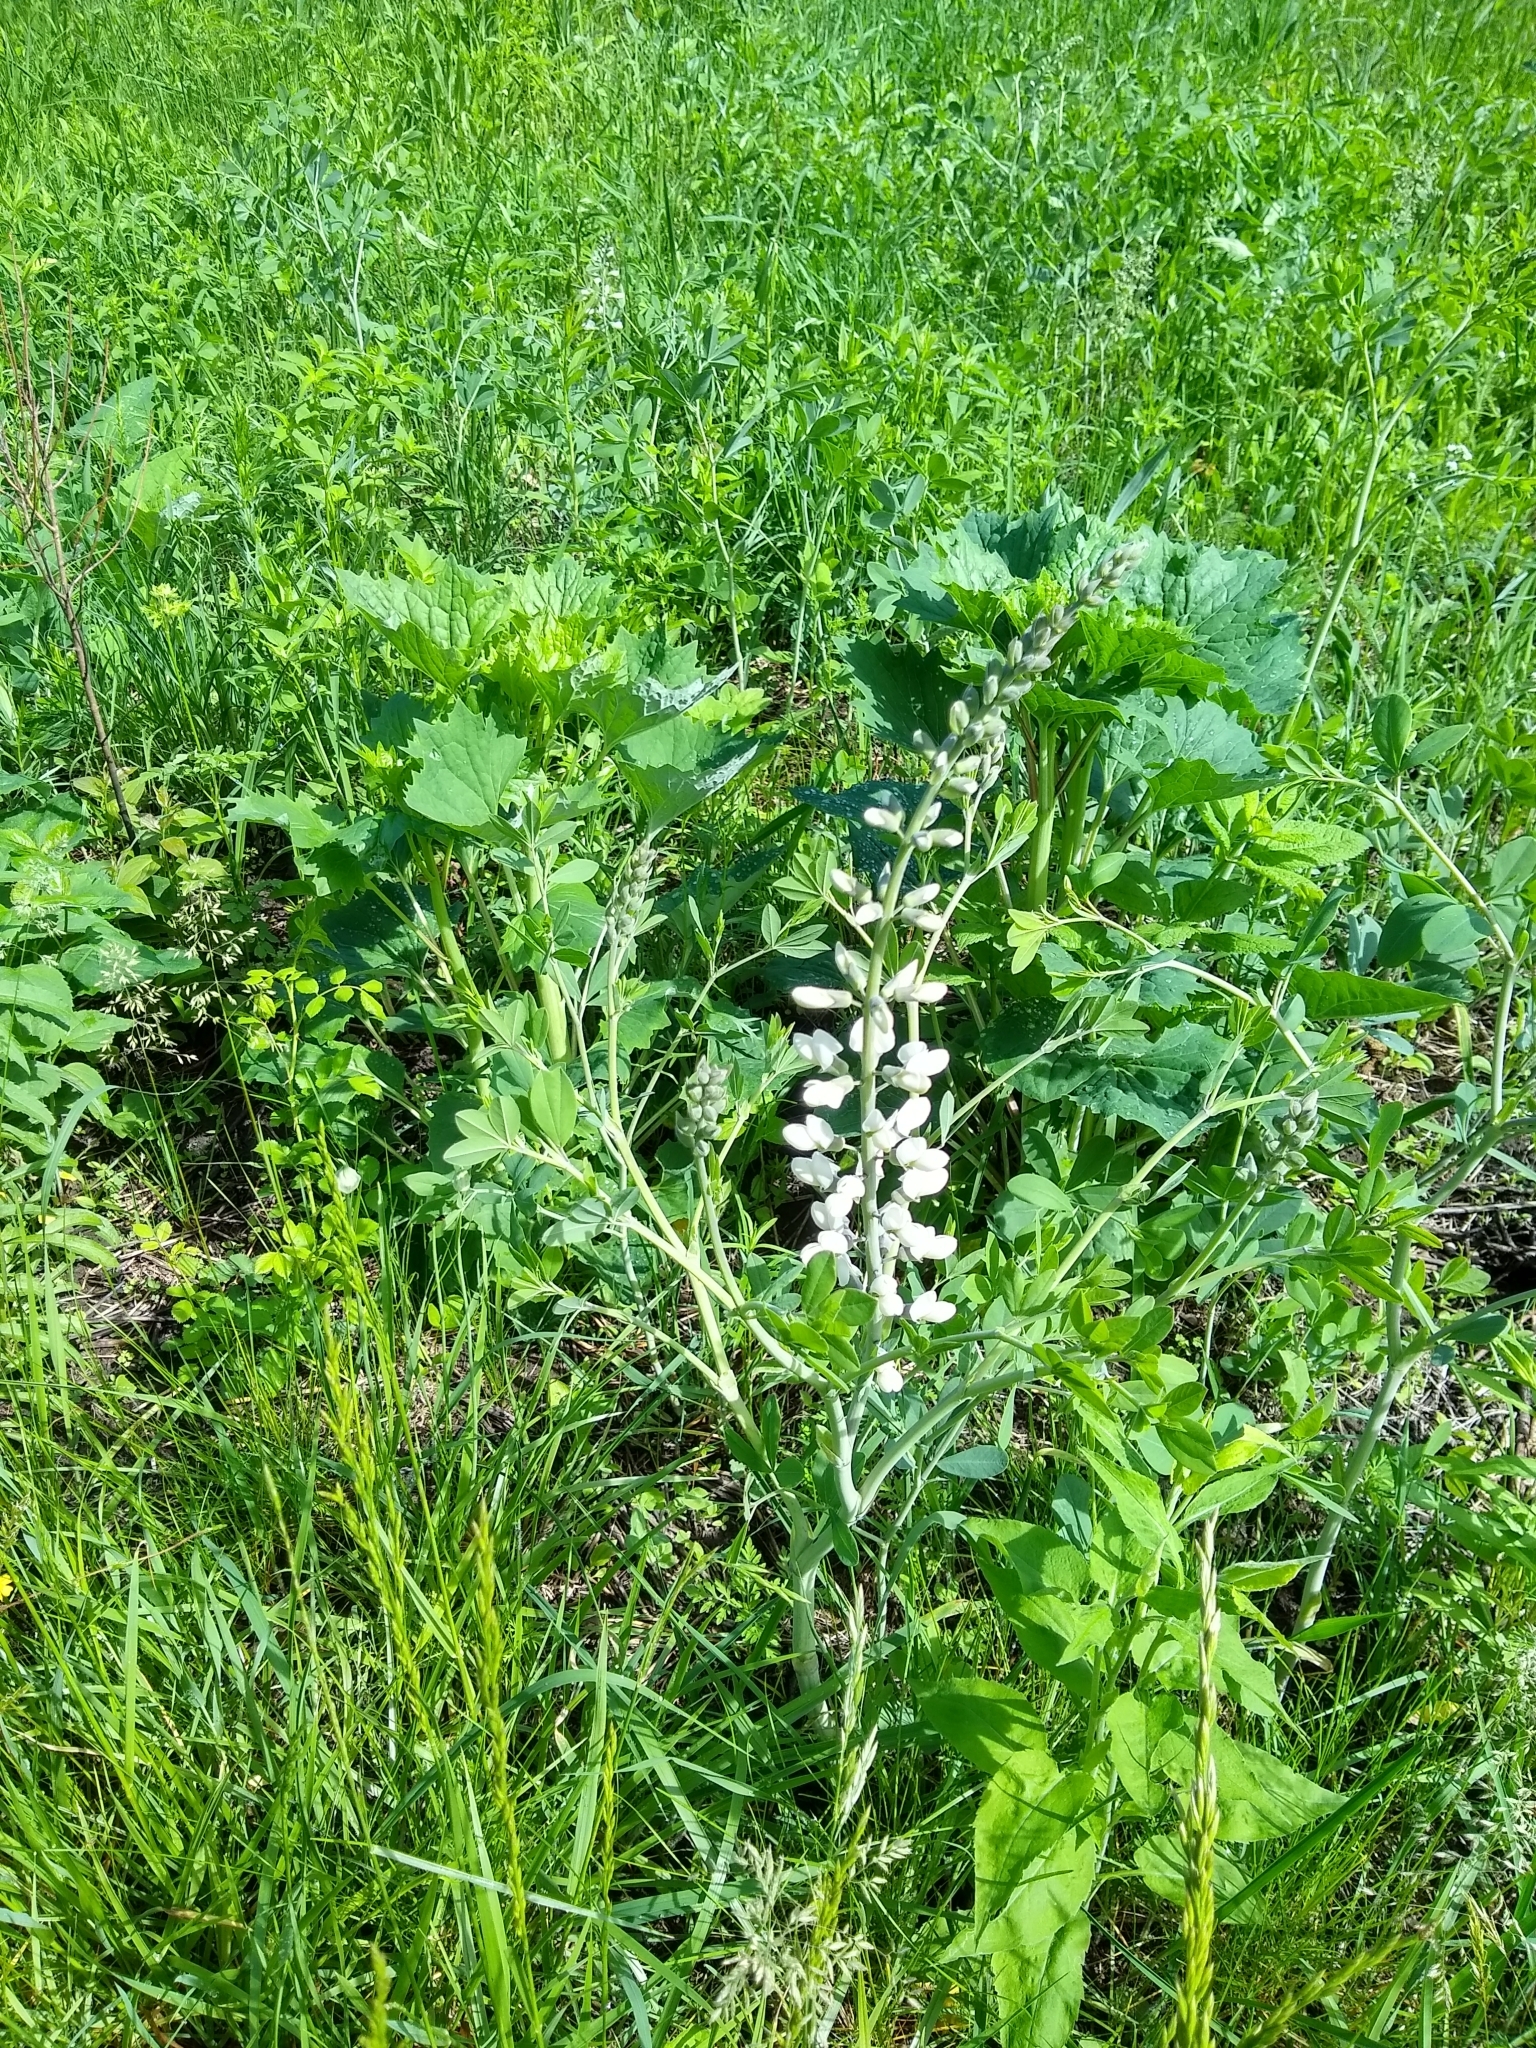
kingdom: Plantae
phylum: Tracheophyta
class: Magnoliopsida
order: Fabales
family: Fabaceae
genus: Baptisia
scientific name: Baptisia alba
